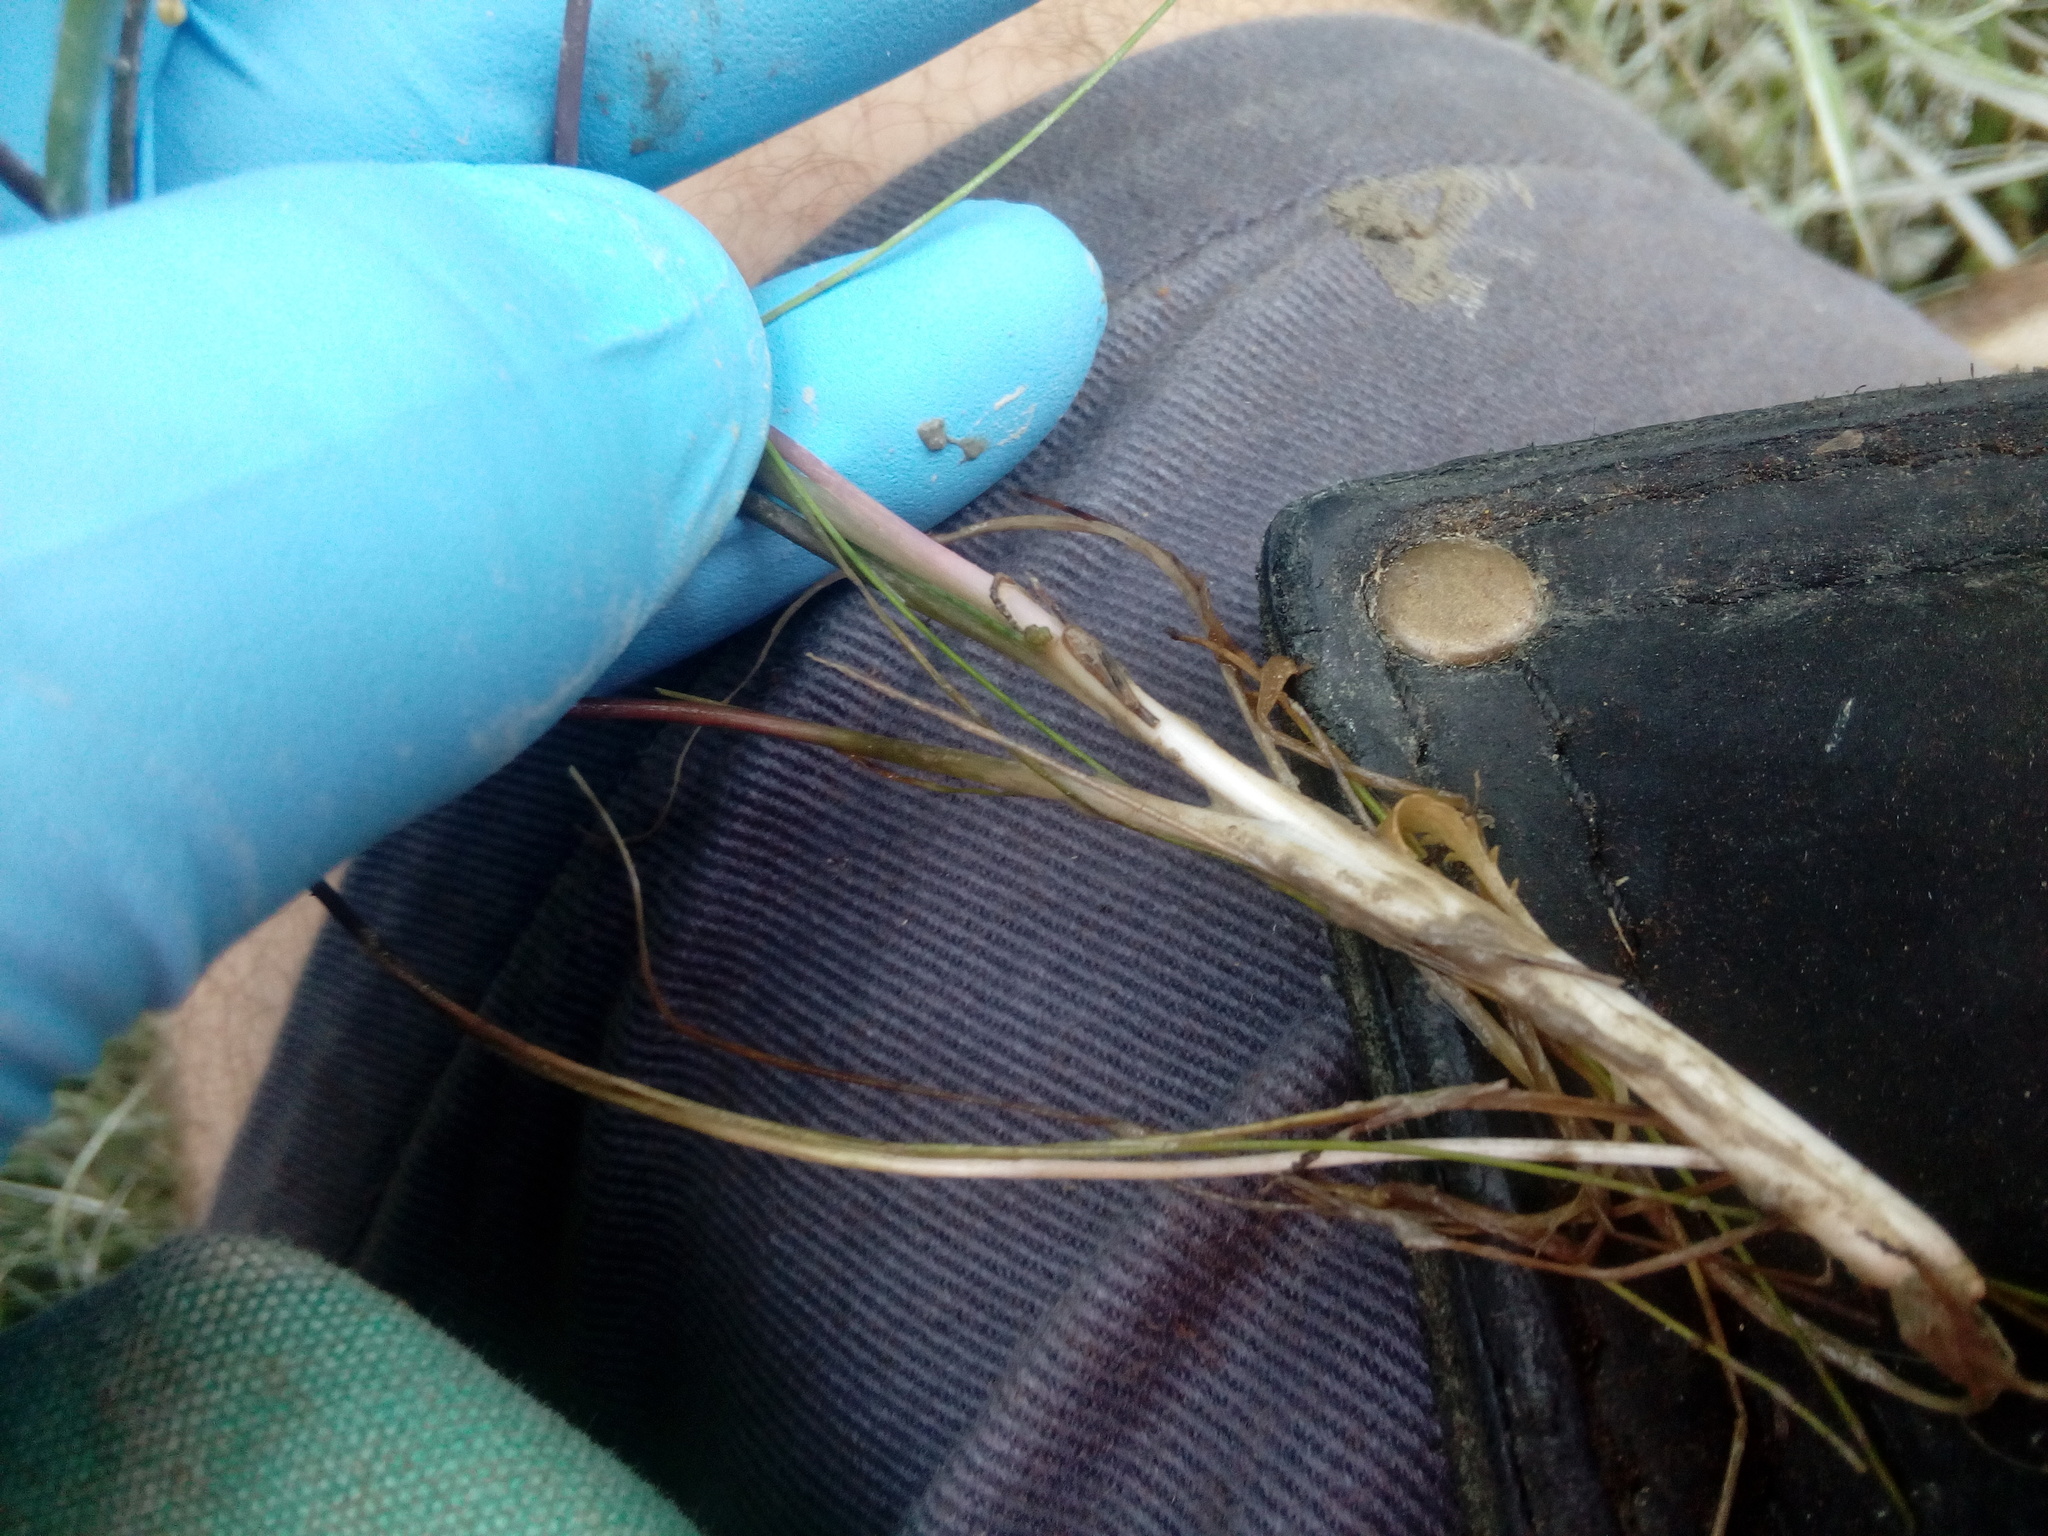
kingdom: Plantae
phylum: Tracheophyta
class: Liliopsida
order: Alismatales
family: Juncaginaceae
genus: Triglochin
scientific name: Triglochin striata
